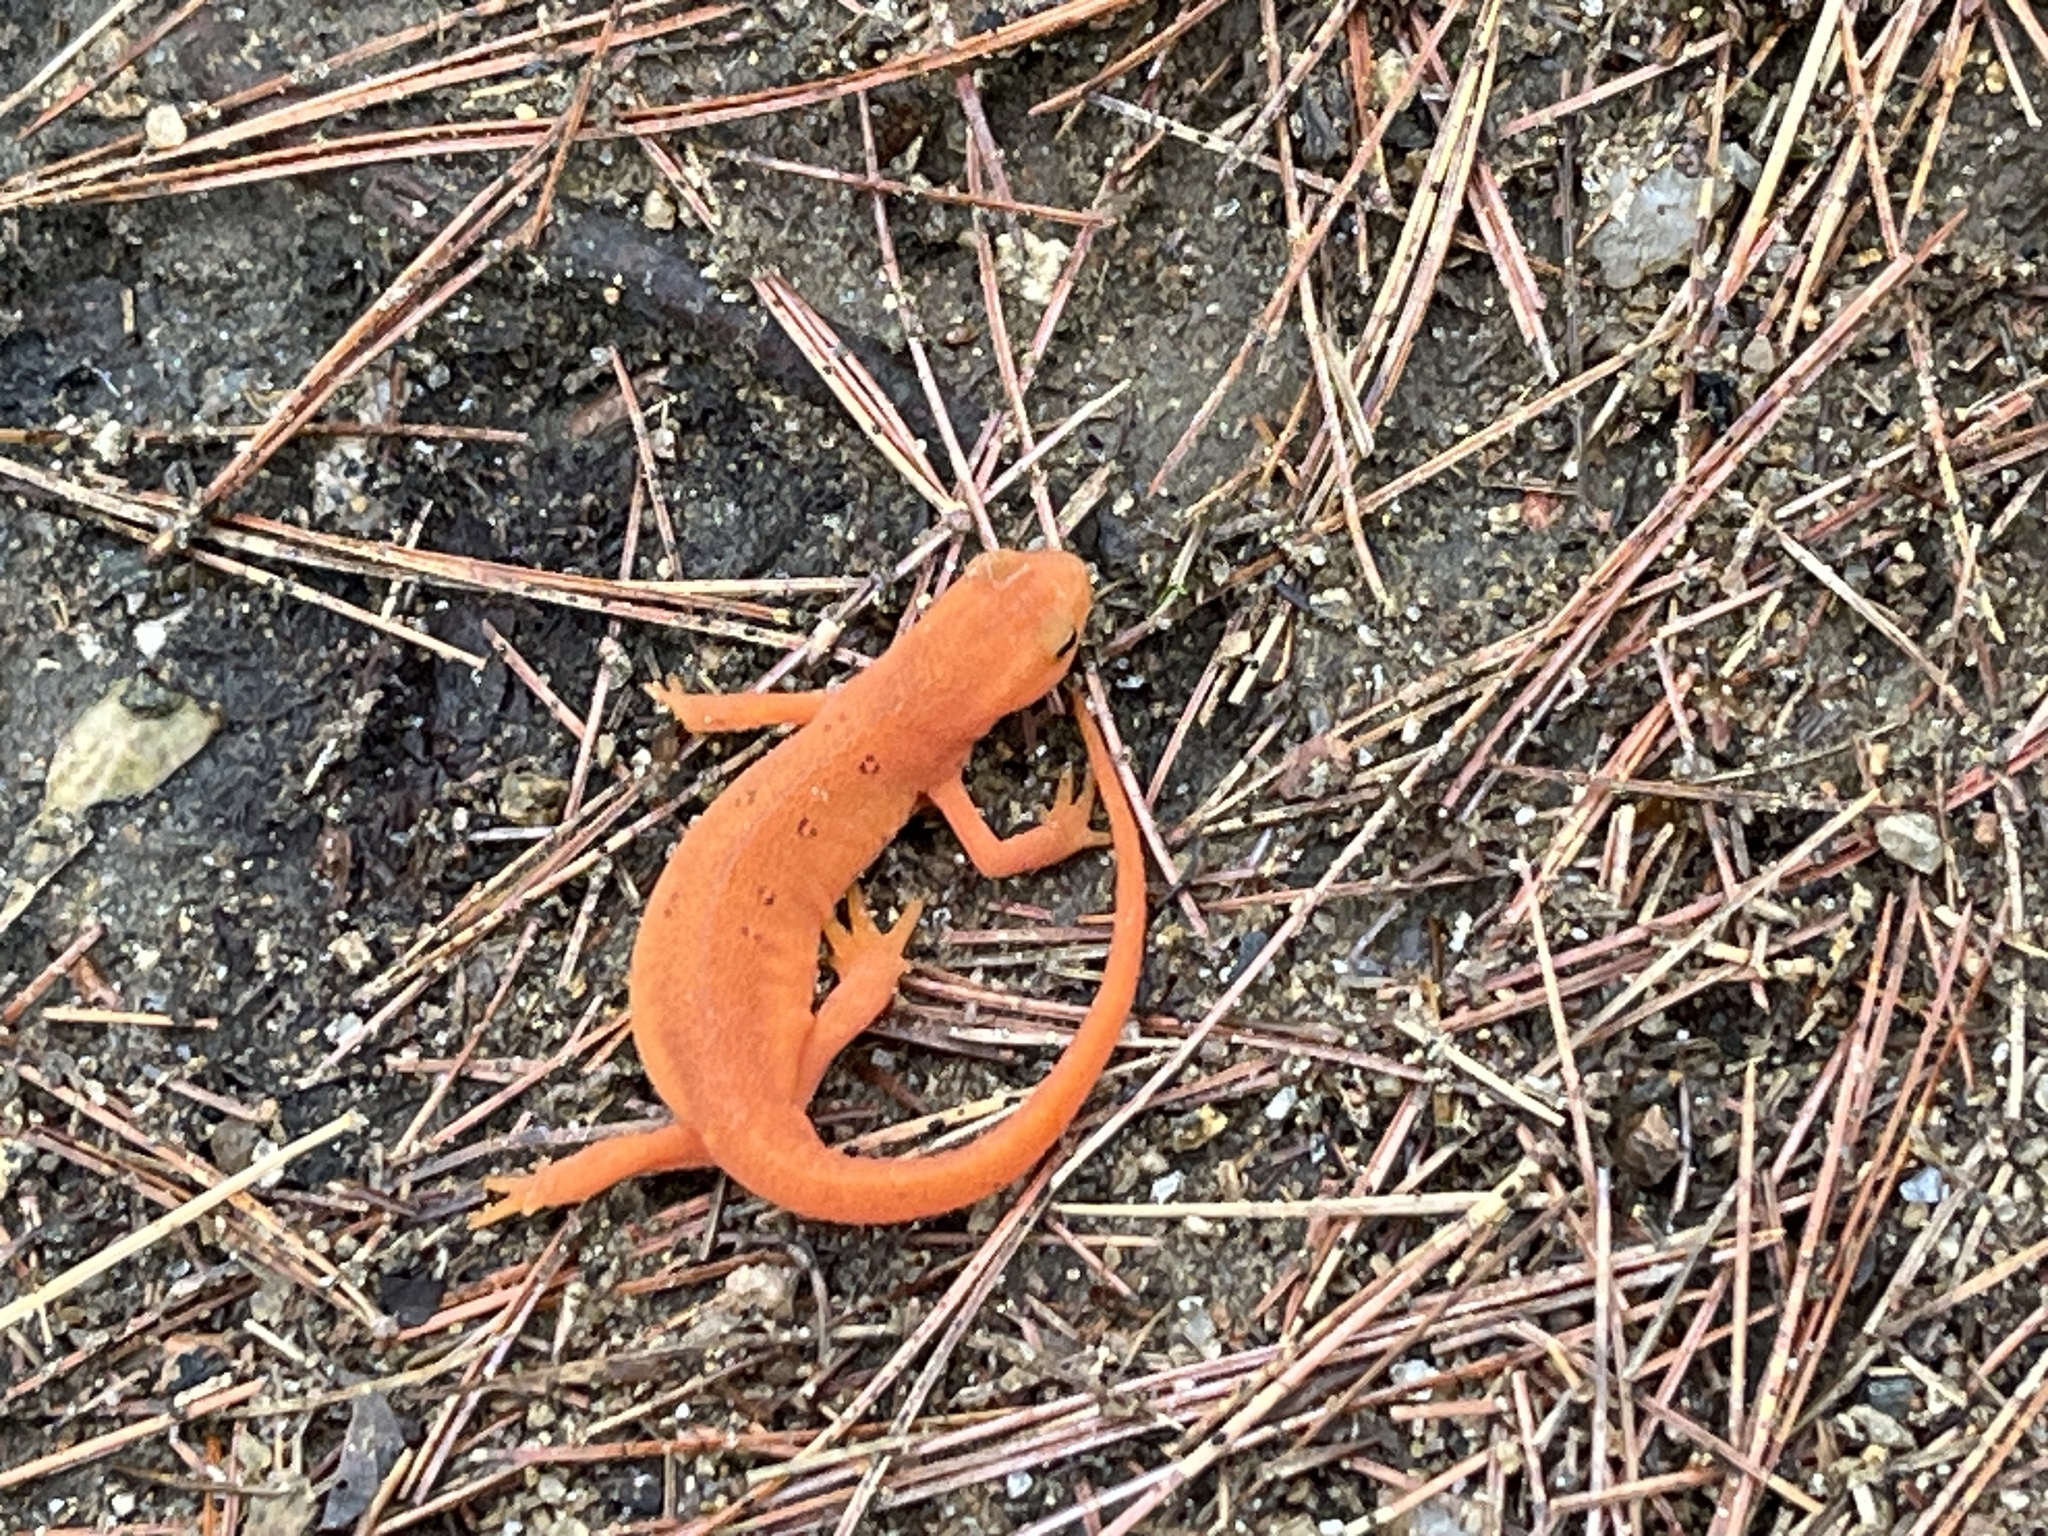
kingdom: Animalia
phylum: Chordata
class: Amphibia
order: Caudata
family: Salamandridae
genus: Notophthalmus
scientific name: Notophthalmus viridescens
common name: Eastern newt
